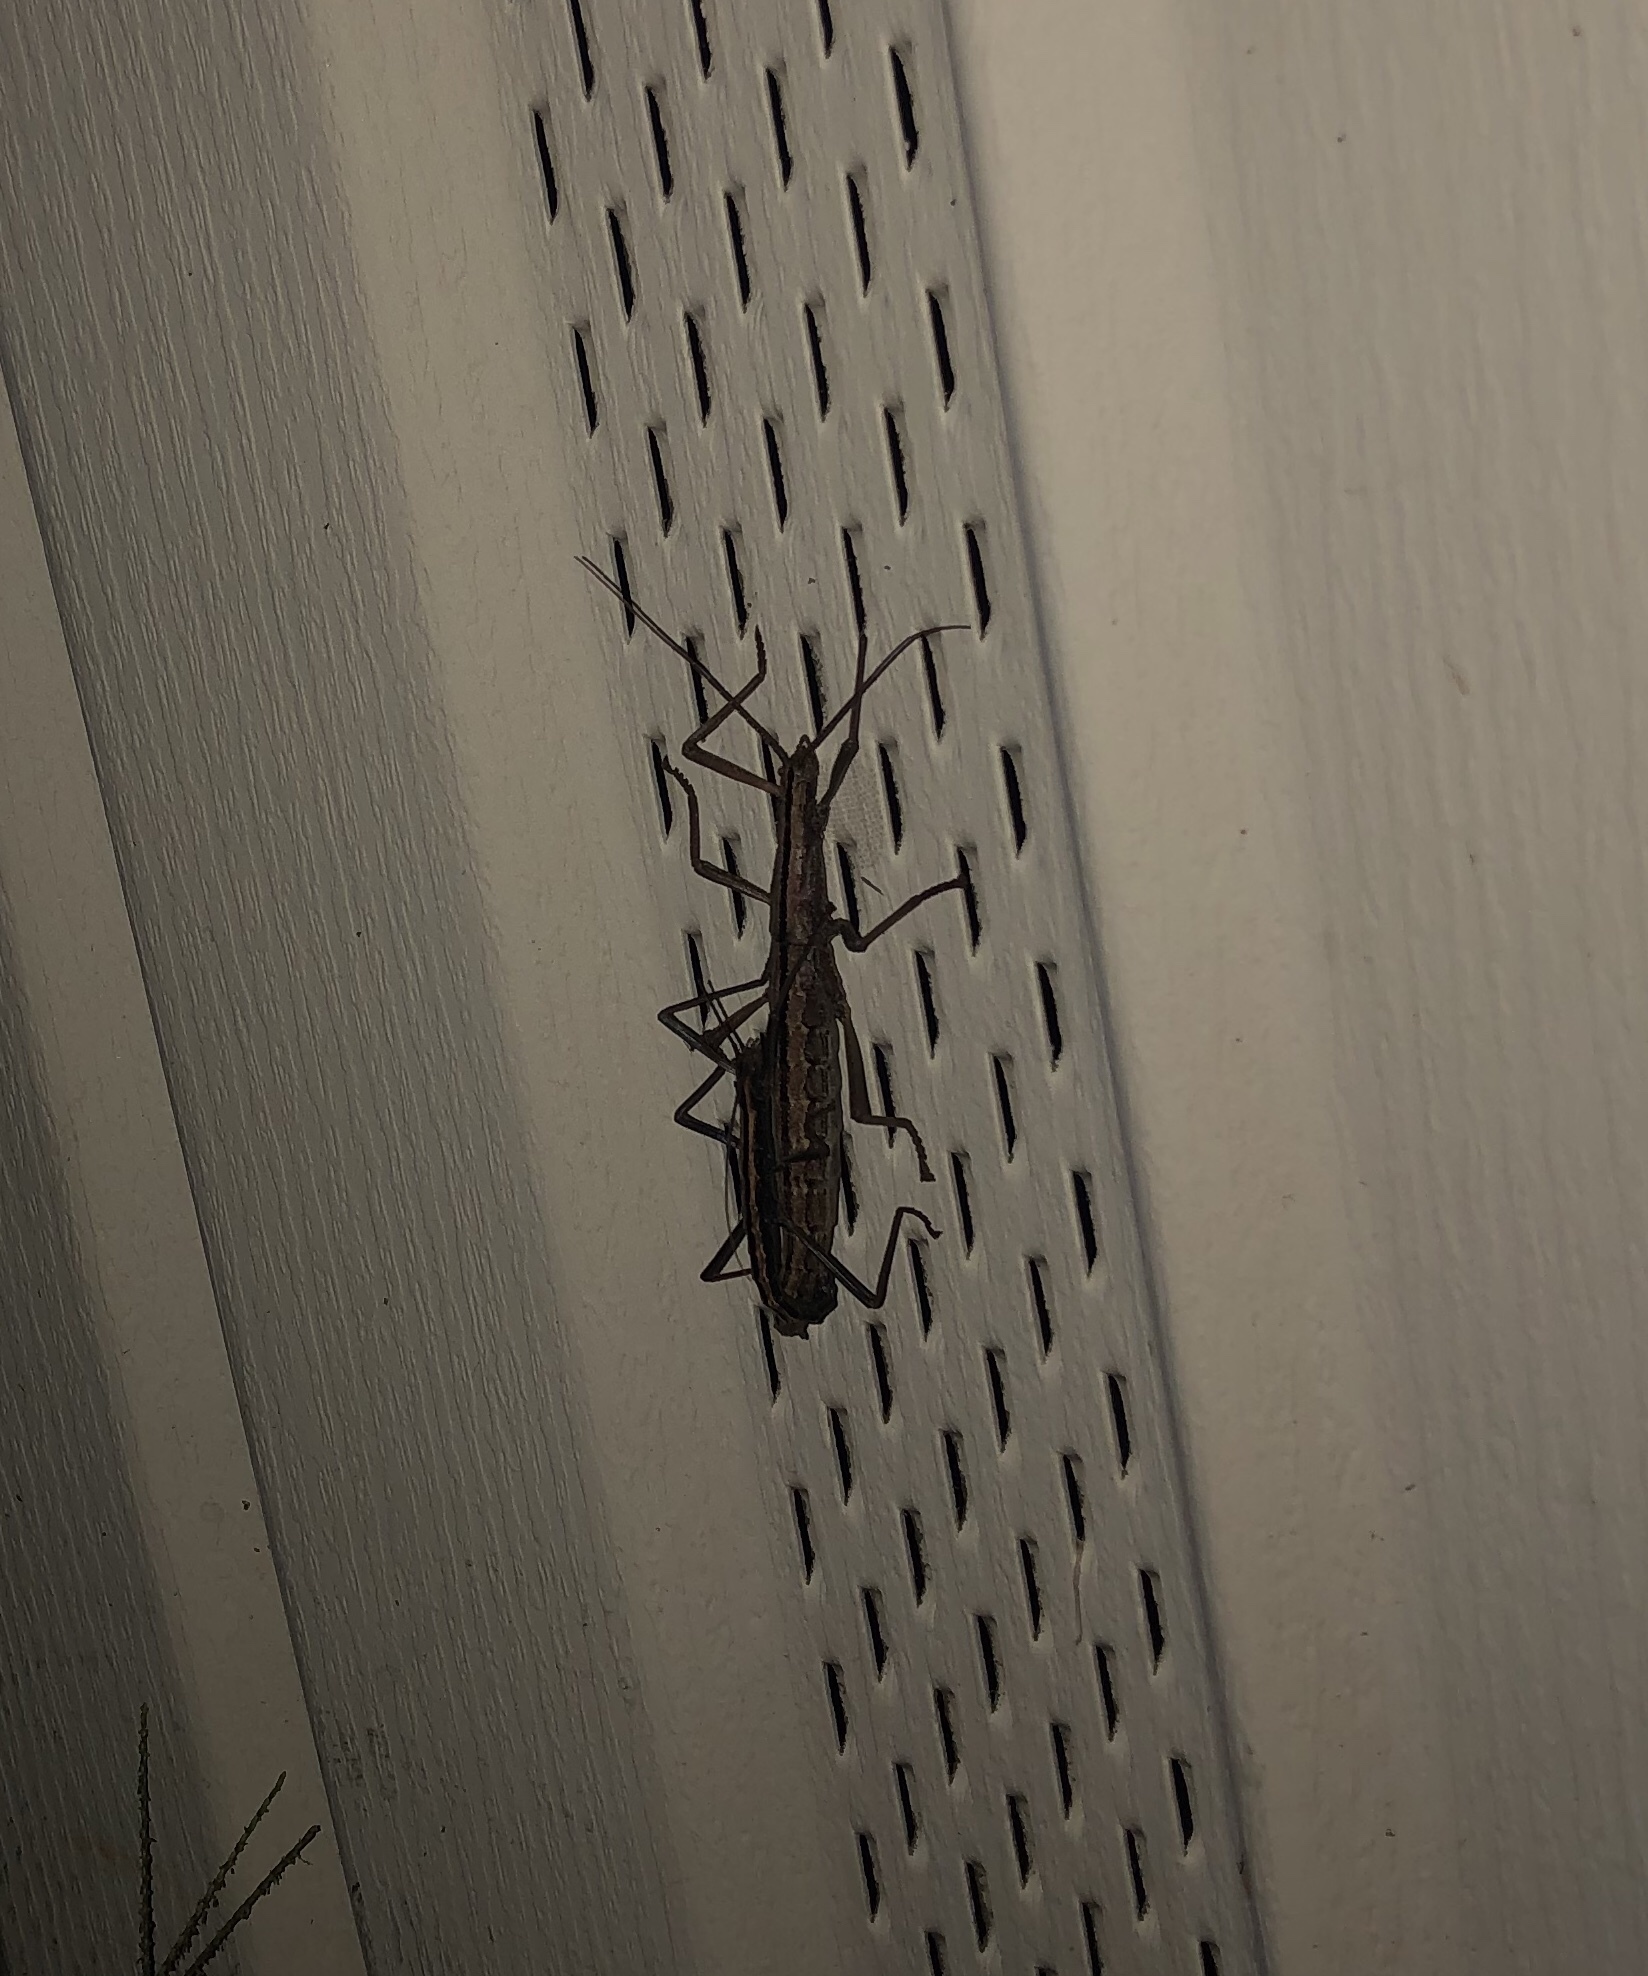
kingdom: Animalia
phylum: Arthropoda
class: Insecta
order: Phasmida
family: Pseudophasmatidae
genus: Anisomorpha
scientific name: Anisomorpha buprestoides
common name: Florida stick insect
